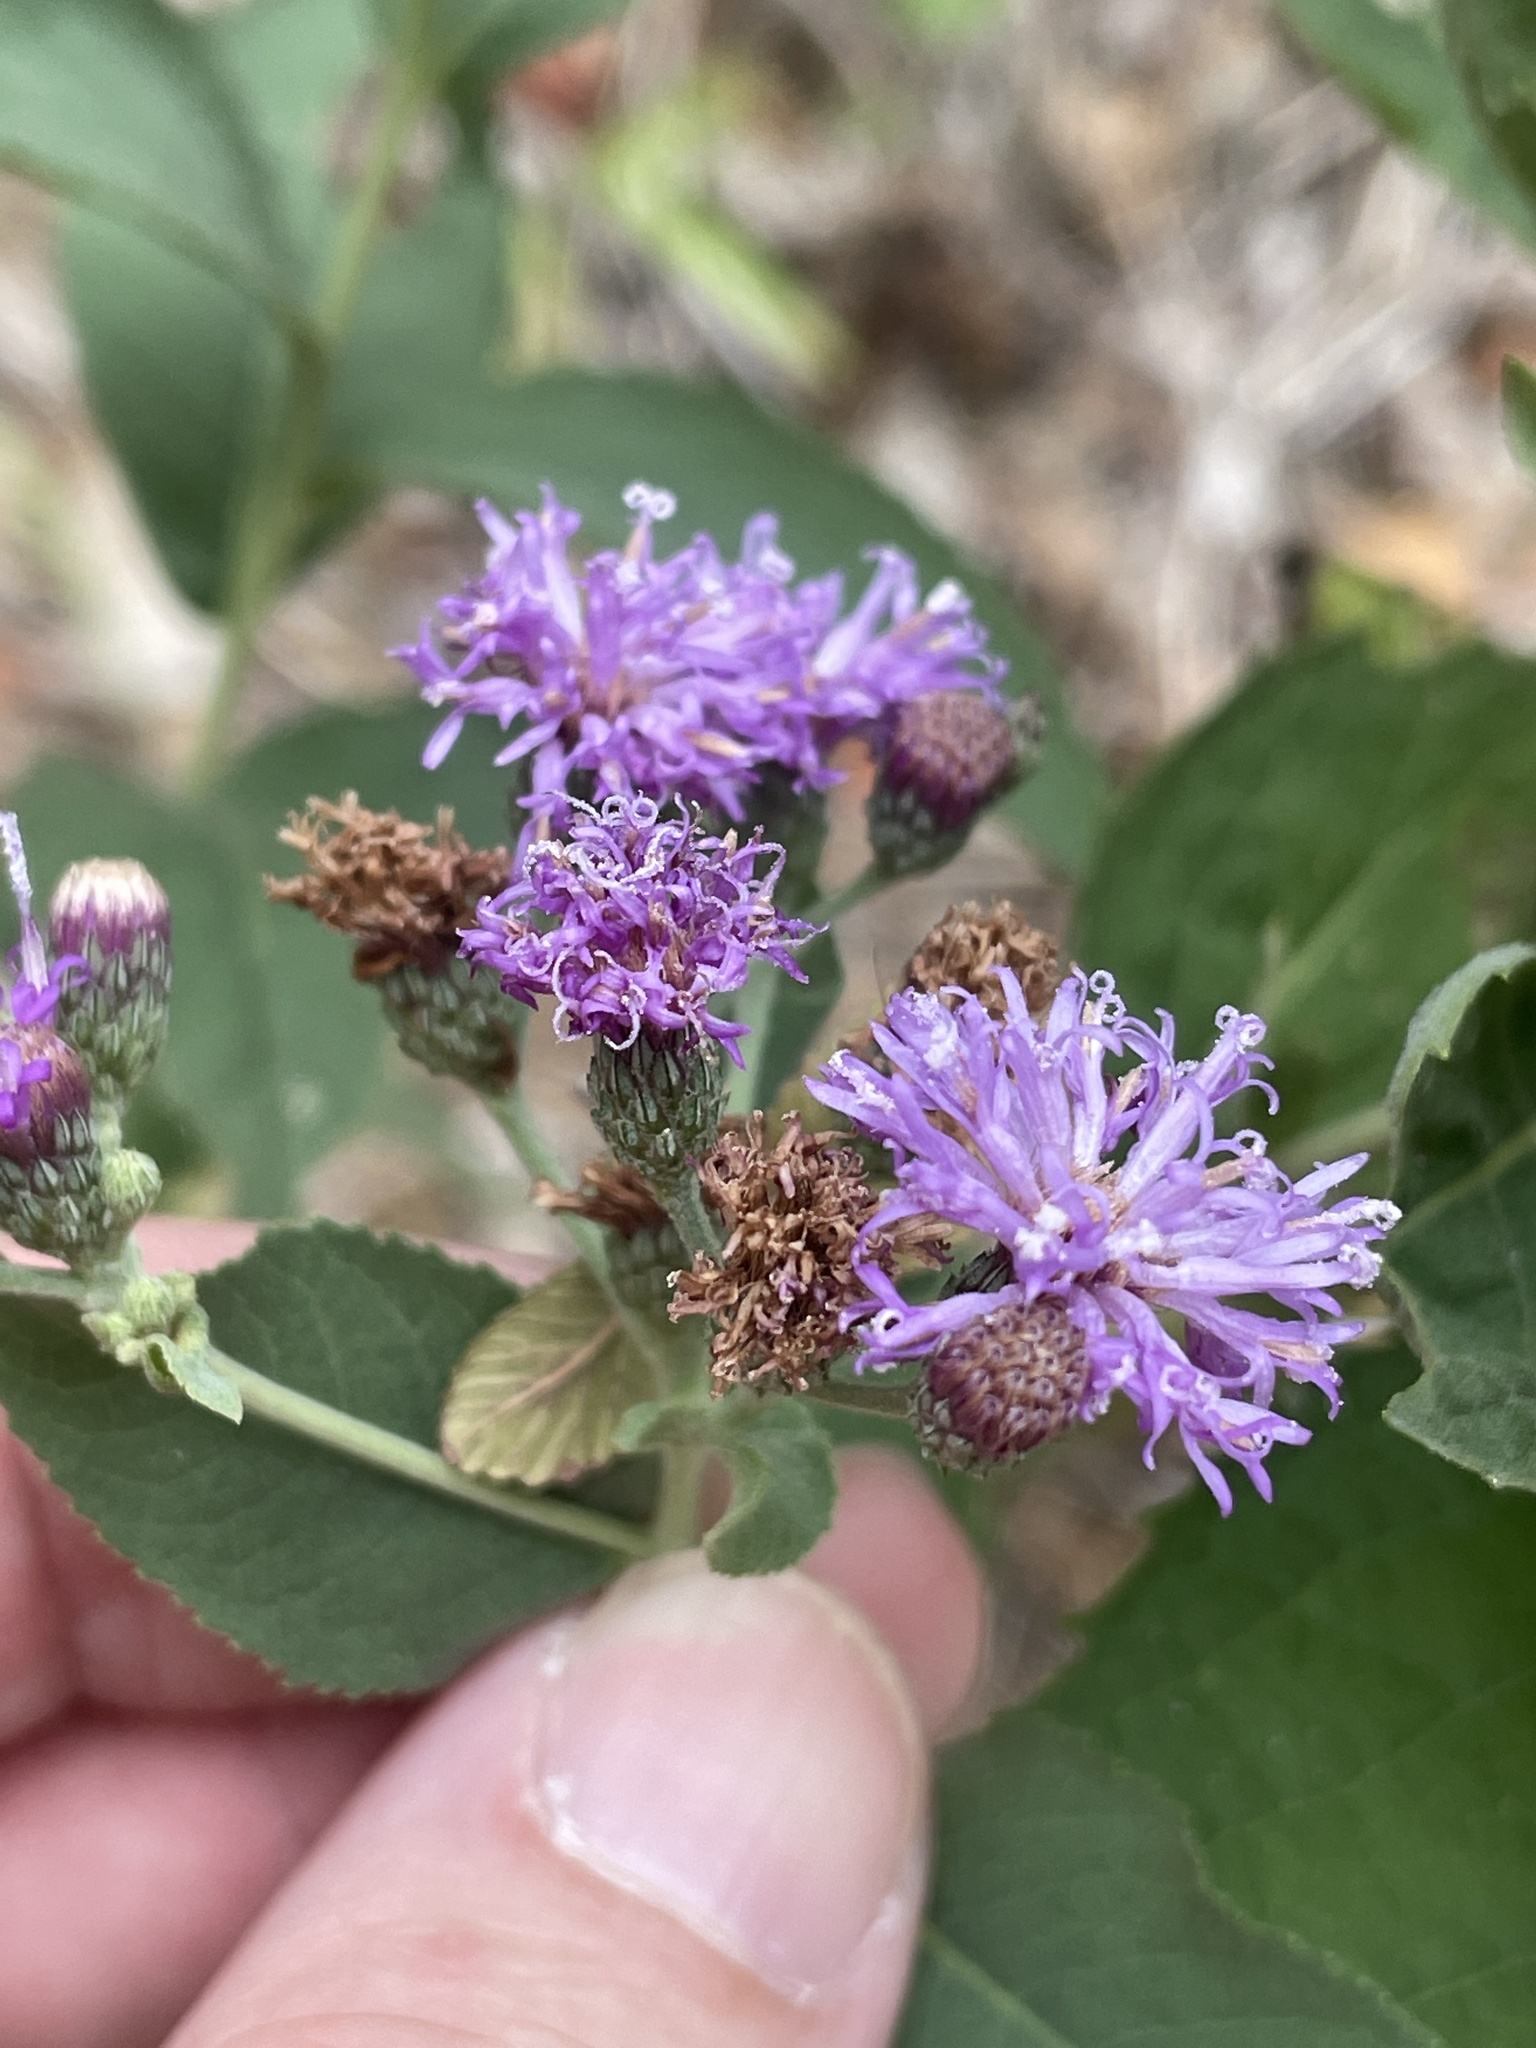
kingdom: Plantae
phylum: Tracheophyta
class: Magnoliopsida
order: Asterales
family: Asteraceae
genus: Vernonia
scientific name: Vernonia baldwinii
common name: Western ironweed
